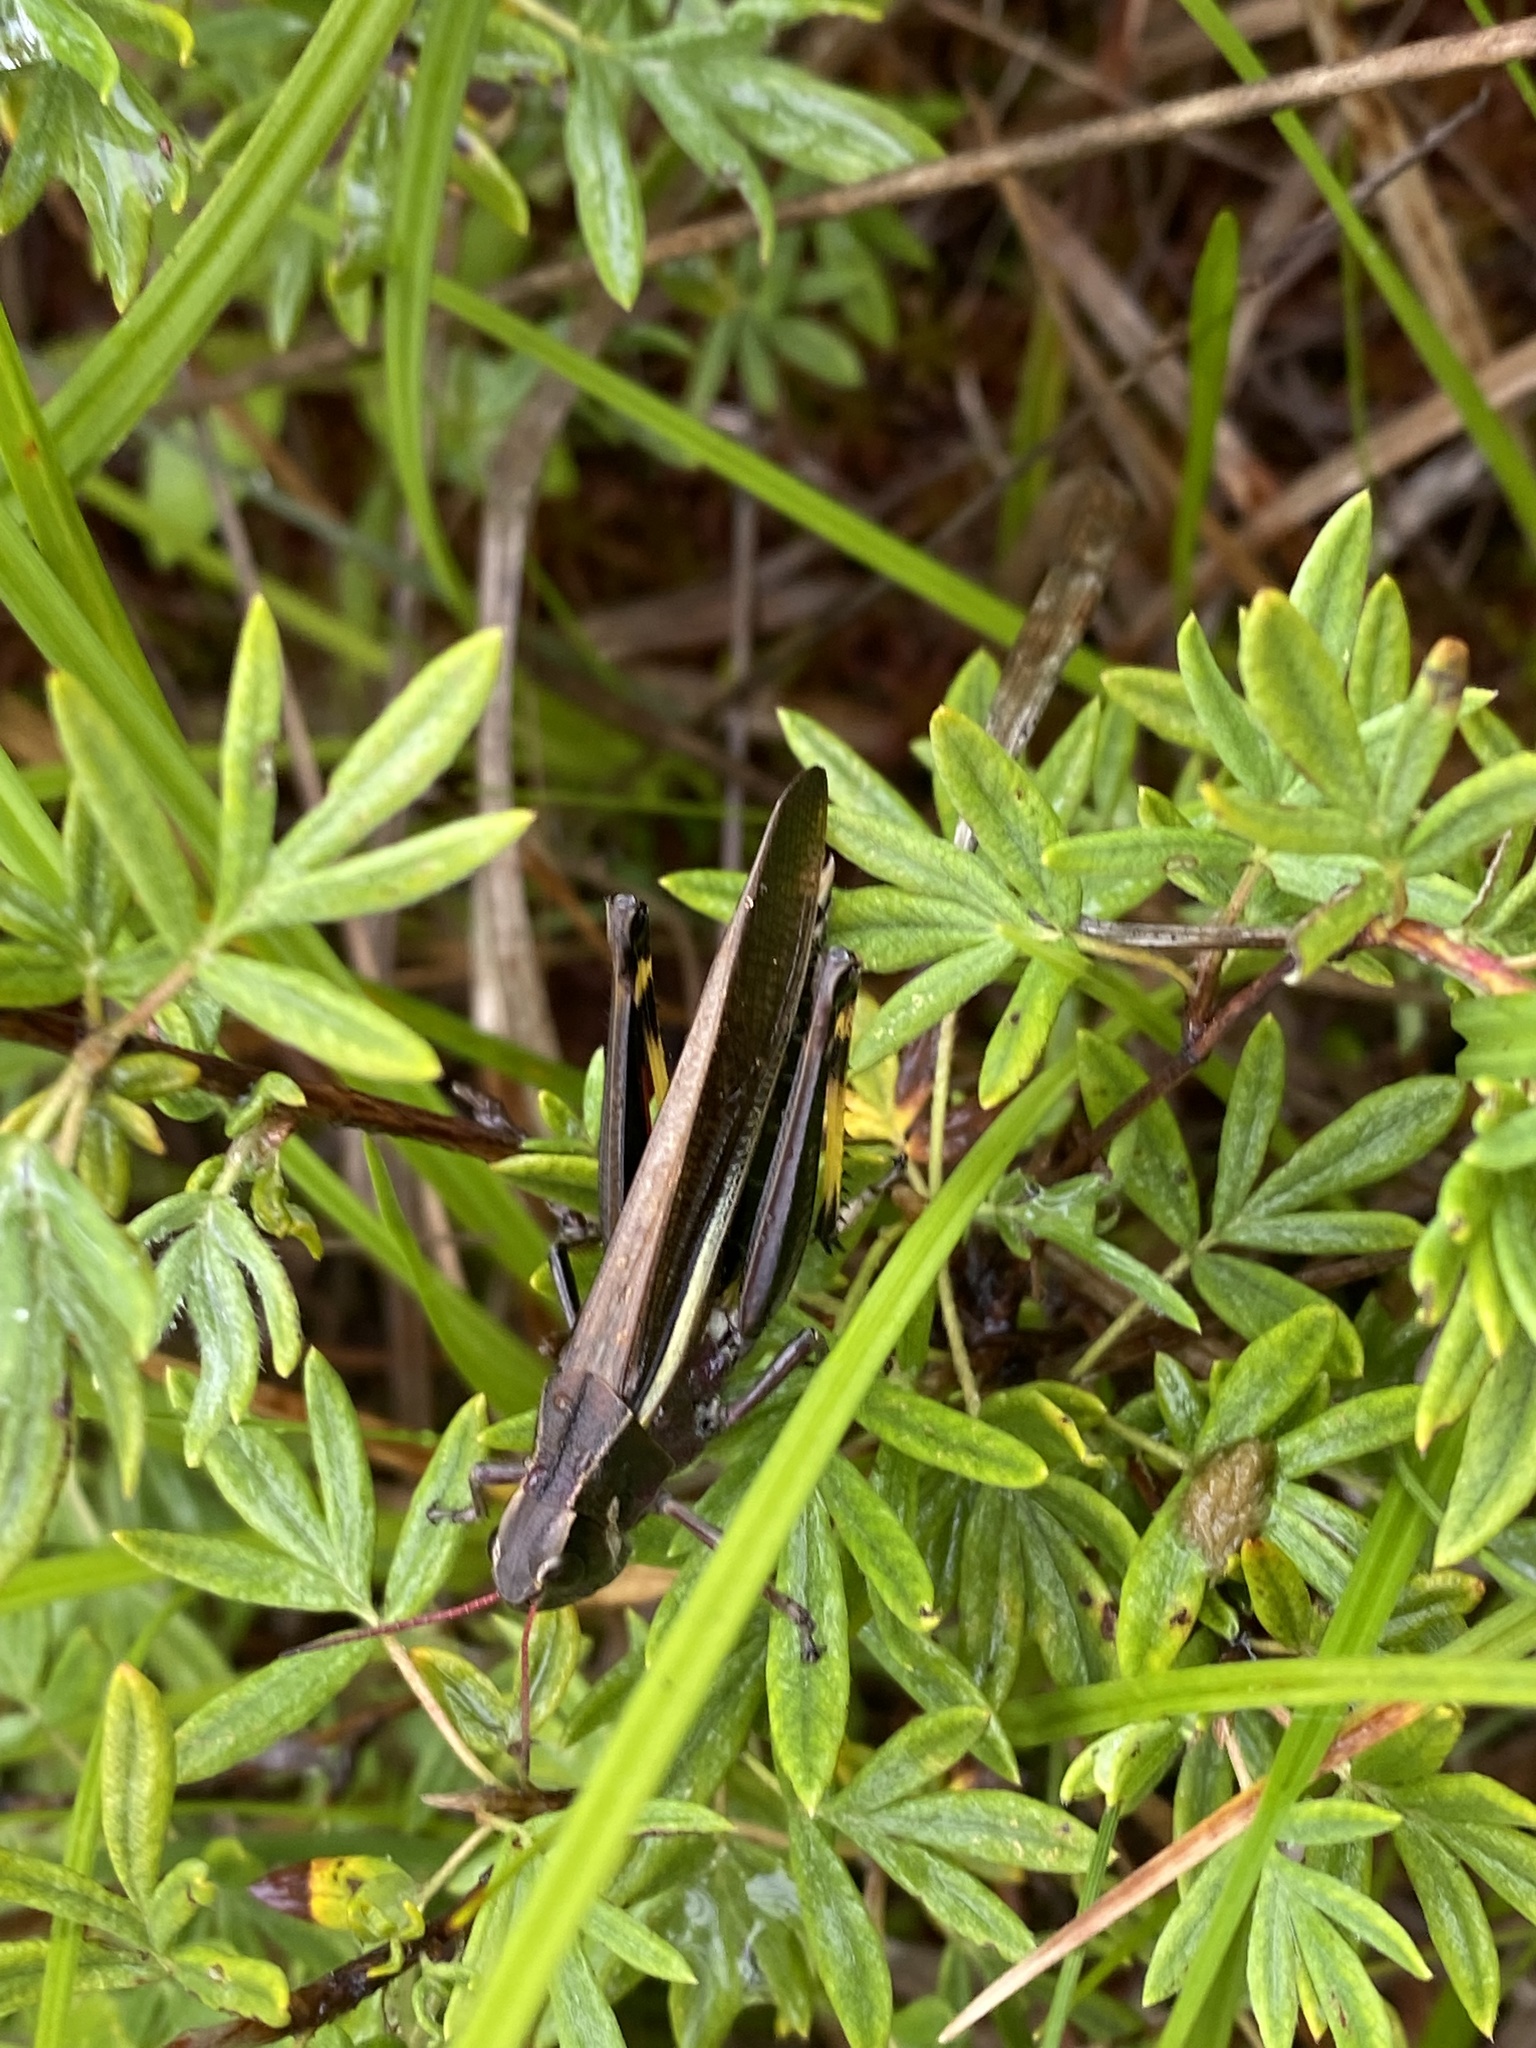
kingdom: Animalia
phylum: Arthropoda
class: Insecta
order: Orthoptera
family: Acrididae
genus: Stethophyma
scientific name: Stethophyma lineatum
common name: Striped sedge locust
